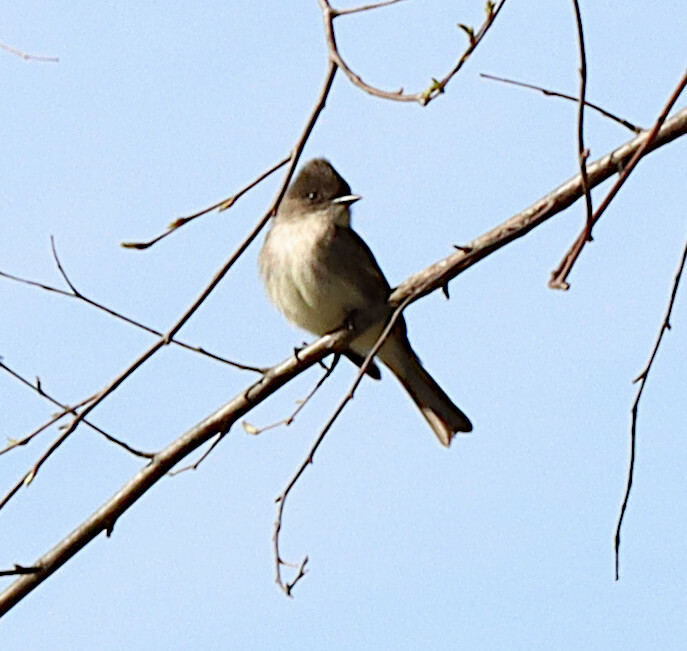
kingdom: Animalia
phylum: Chordata
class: Aves
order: Passeriformes
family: Tyrannidae
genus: Sayornis
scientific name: Sayornis phoebe
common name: Eastern phoebe
